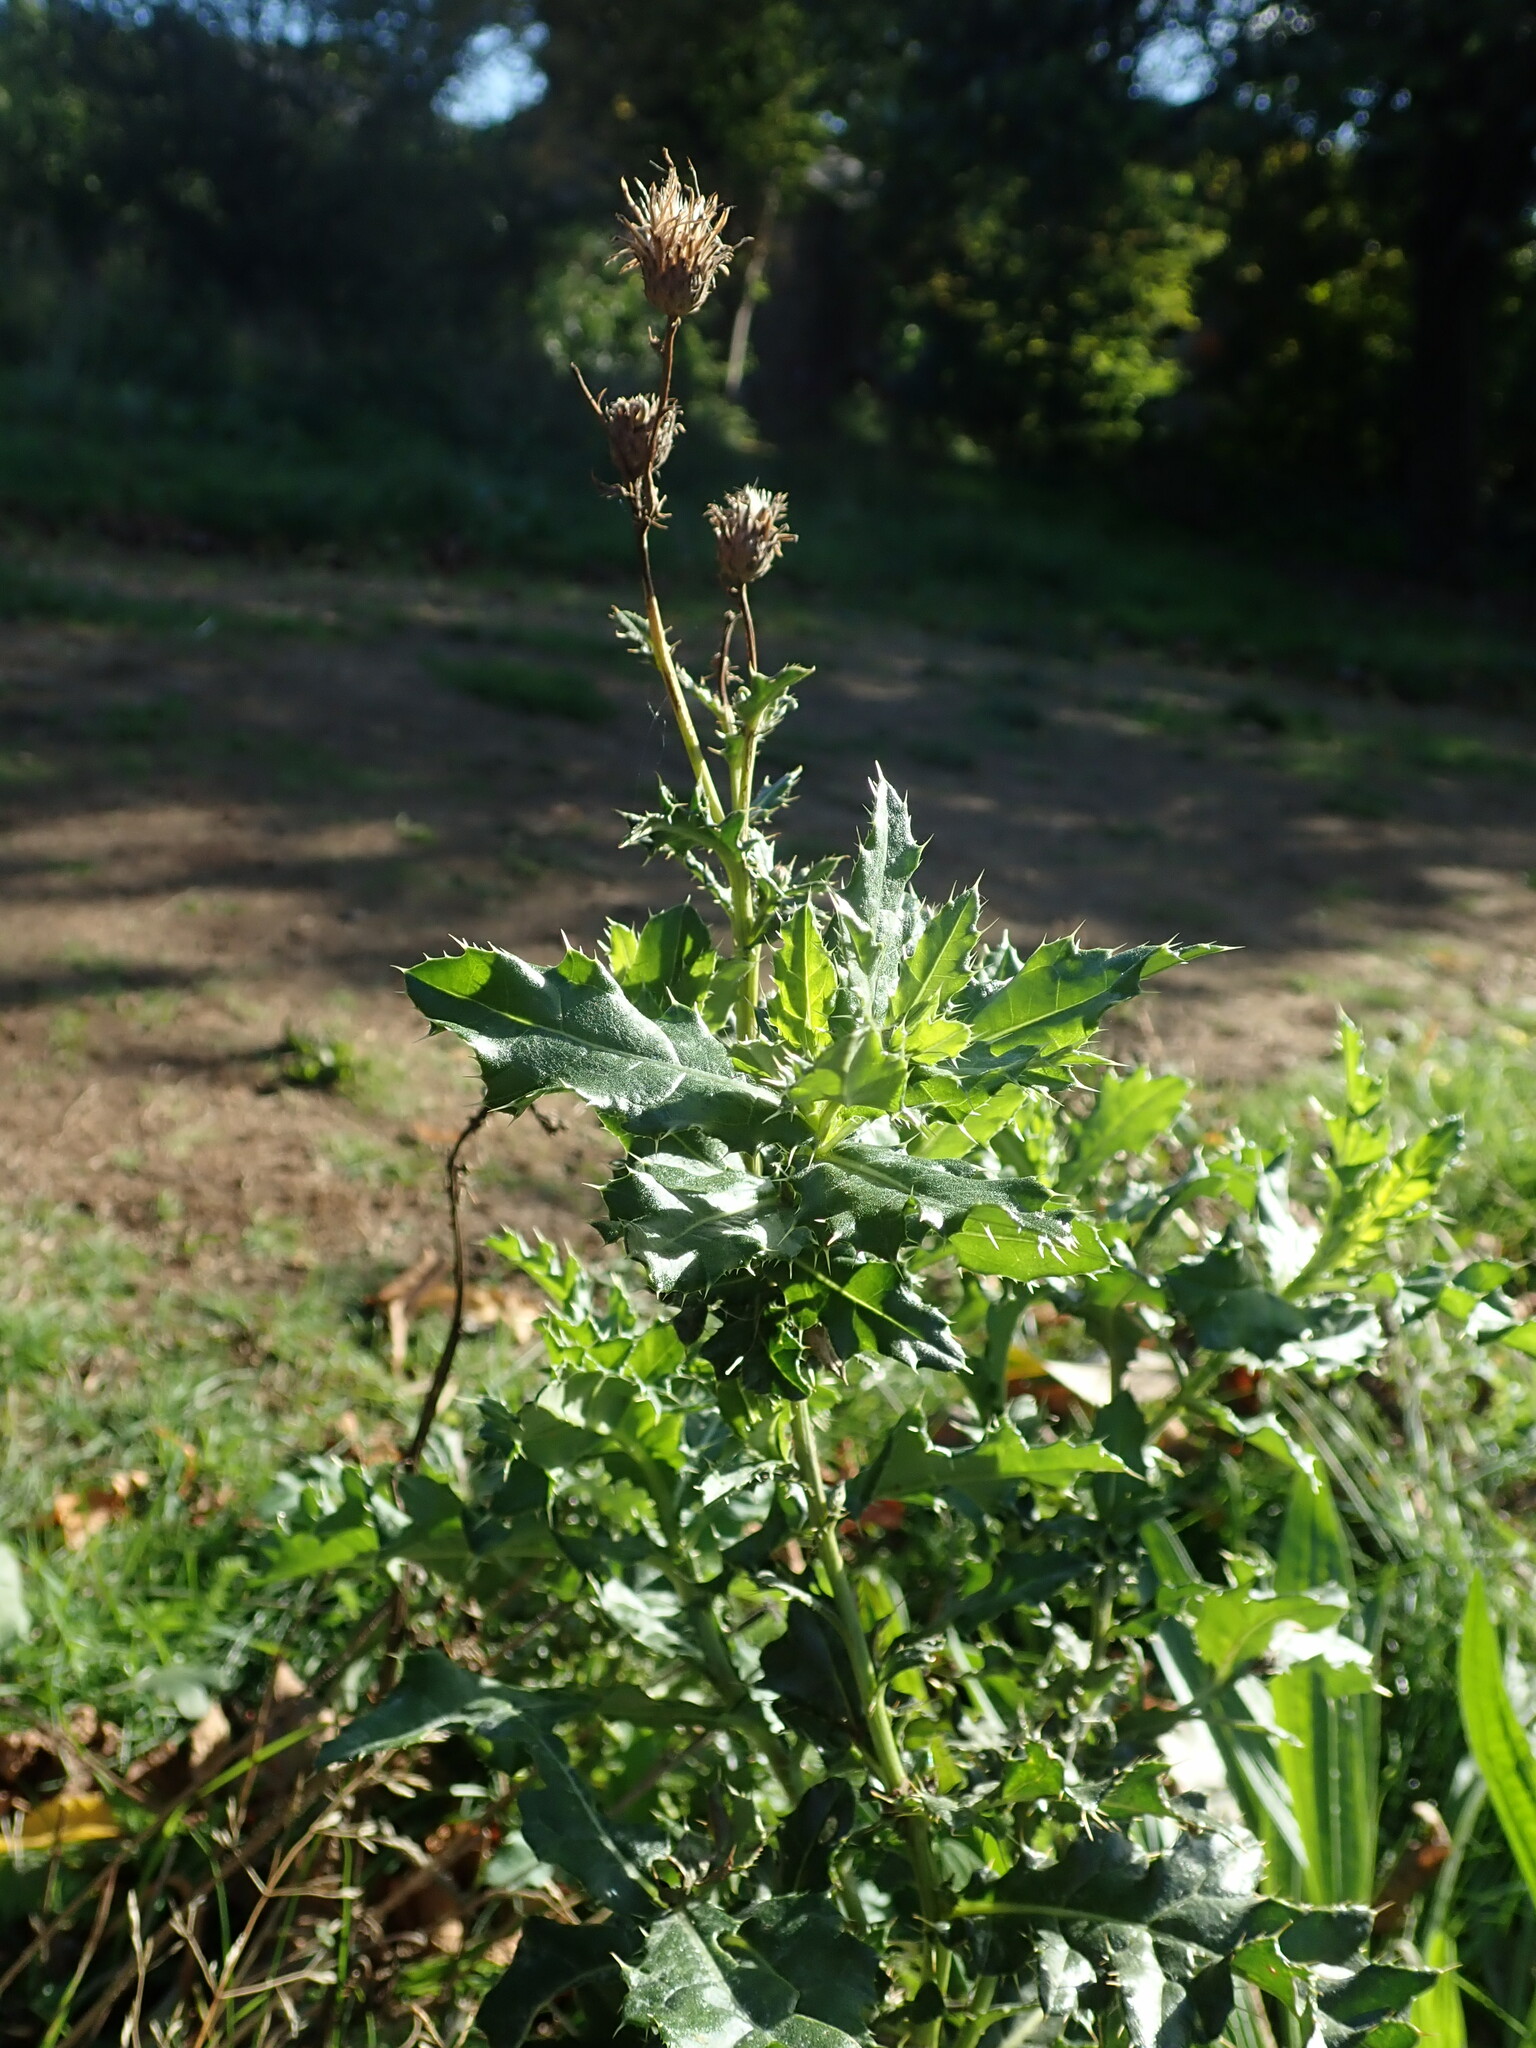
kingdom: Plantae
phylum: Tracheophyta
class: Magnoliopsida
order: Asterales
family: Asteraceae
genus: Cirsium
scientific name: Cirsium arvense
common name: Creeping thistle
